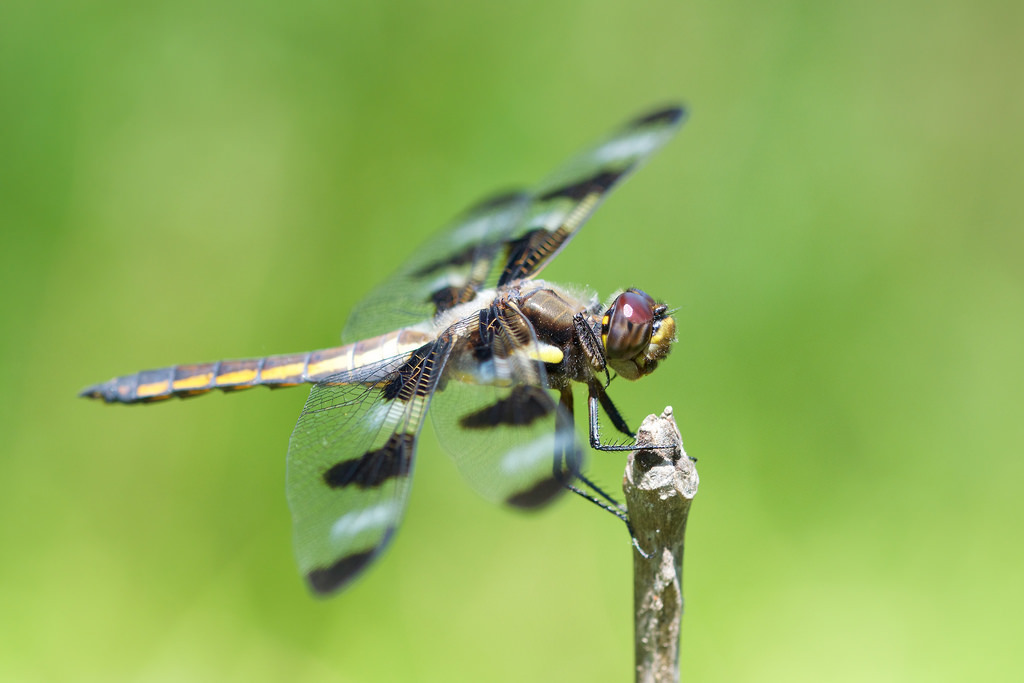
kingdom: Animalia
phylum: Arthropoda
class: Insecta
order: Odonata
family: Libellulidae
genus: Libellula
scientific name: Libellula pulchella
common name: Twelve-spotted skimmer
